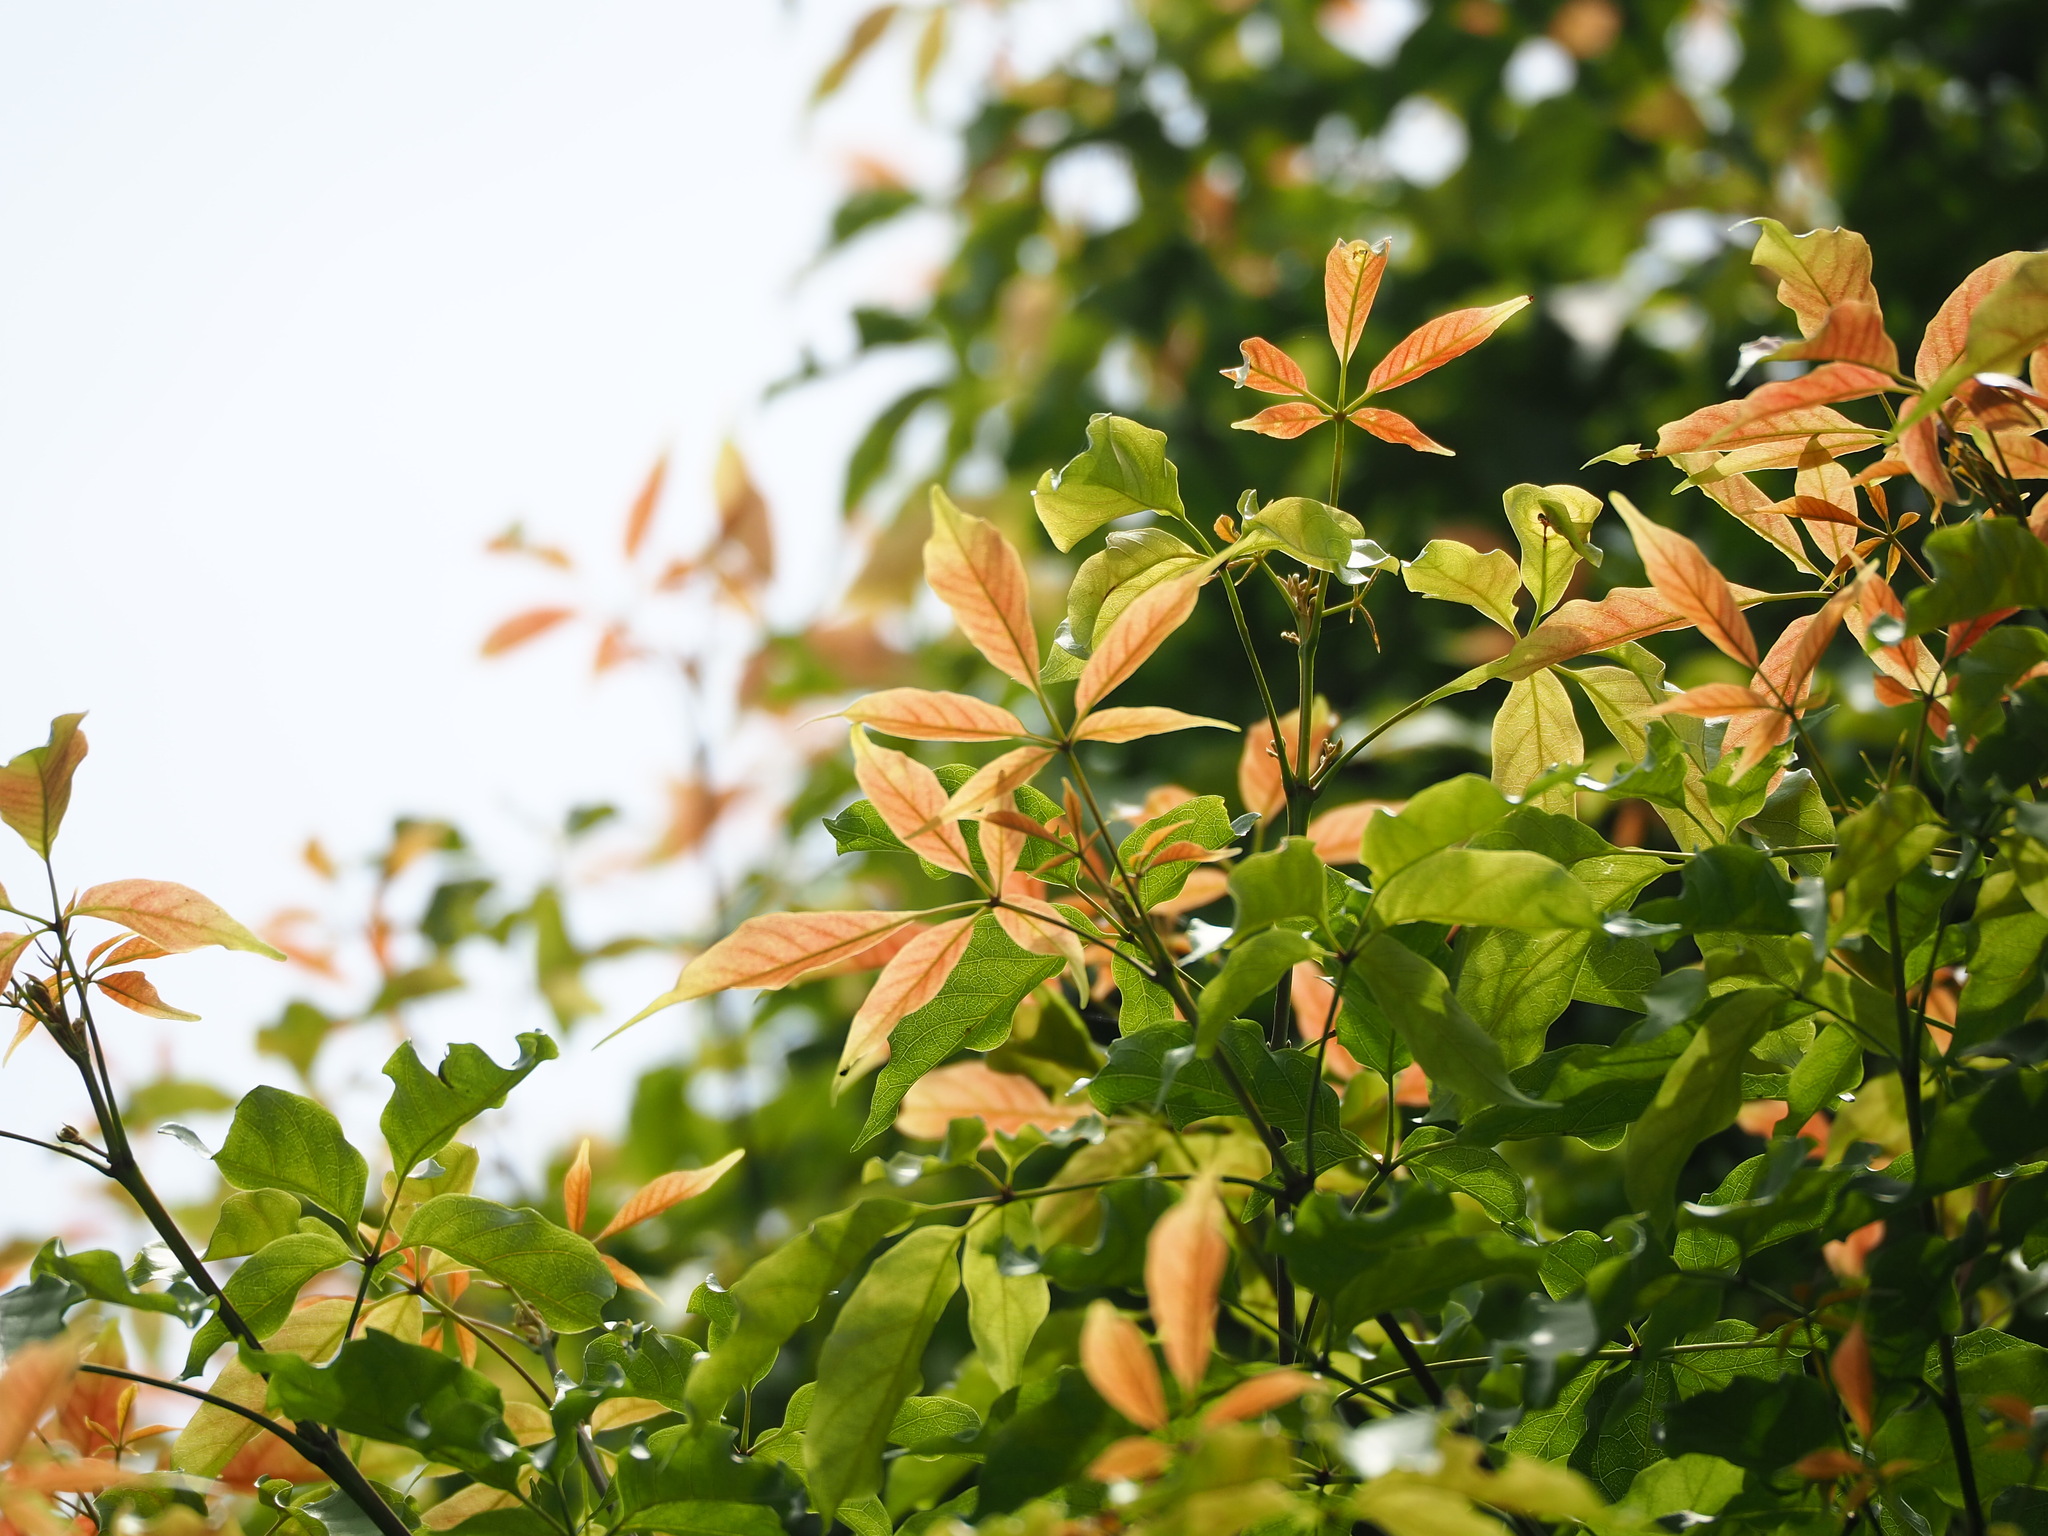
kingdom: Plantae
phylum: Tracheophyta
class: Magnoliopsida
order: Lamiales
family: Lamiaceae
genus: Vitex
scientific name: Vitex quinata
